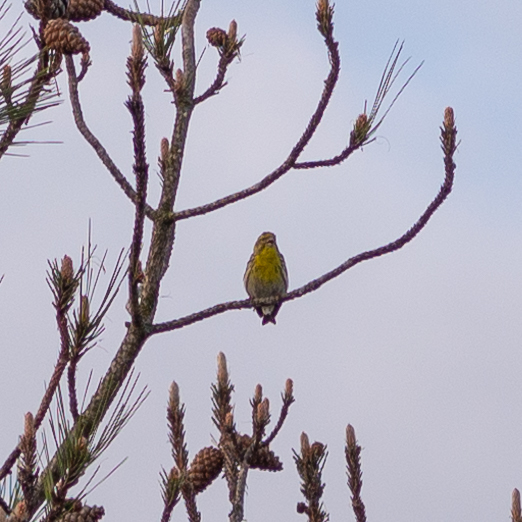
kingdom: Animalia
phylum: Chordata
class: Aves
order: Passeriformes
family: Fringillidae
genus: Serinus
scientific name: Serinus serinus
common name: European serin
